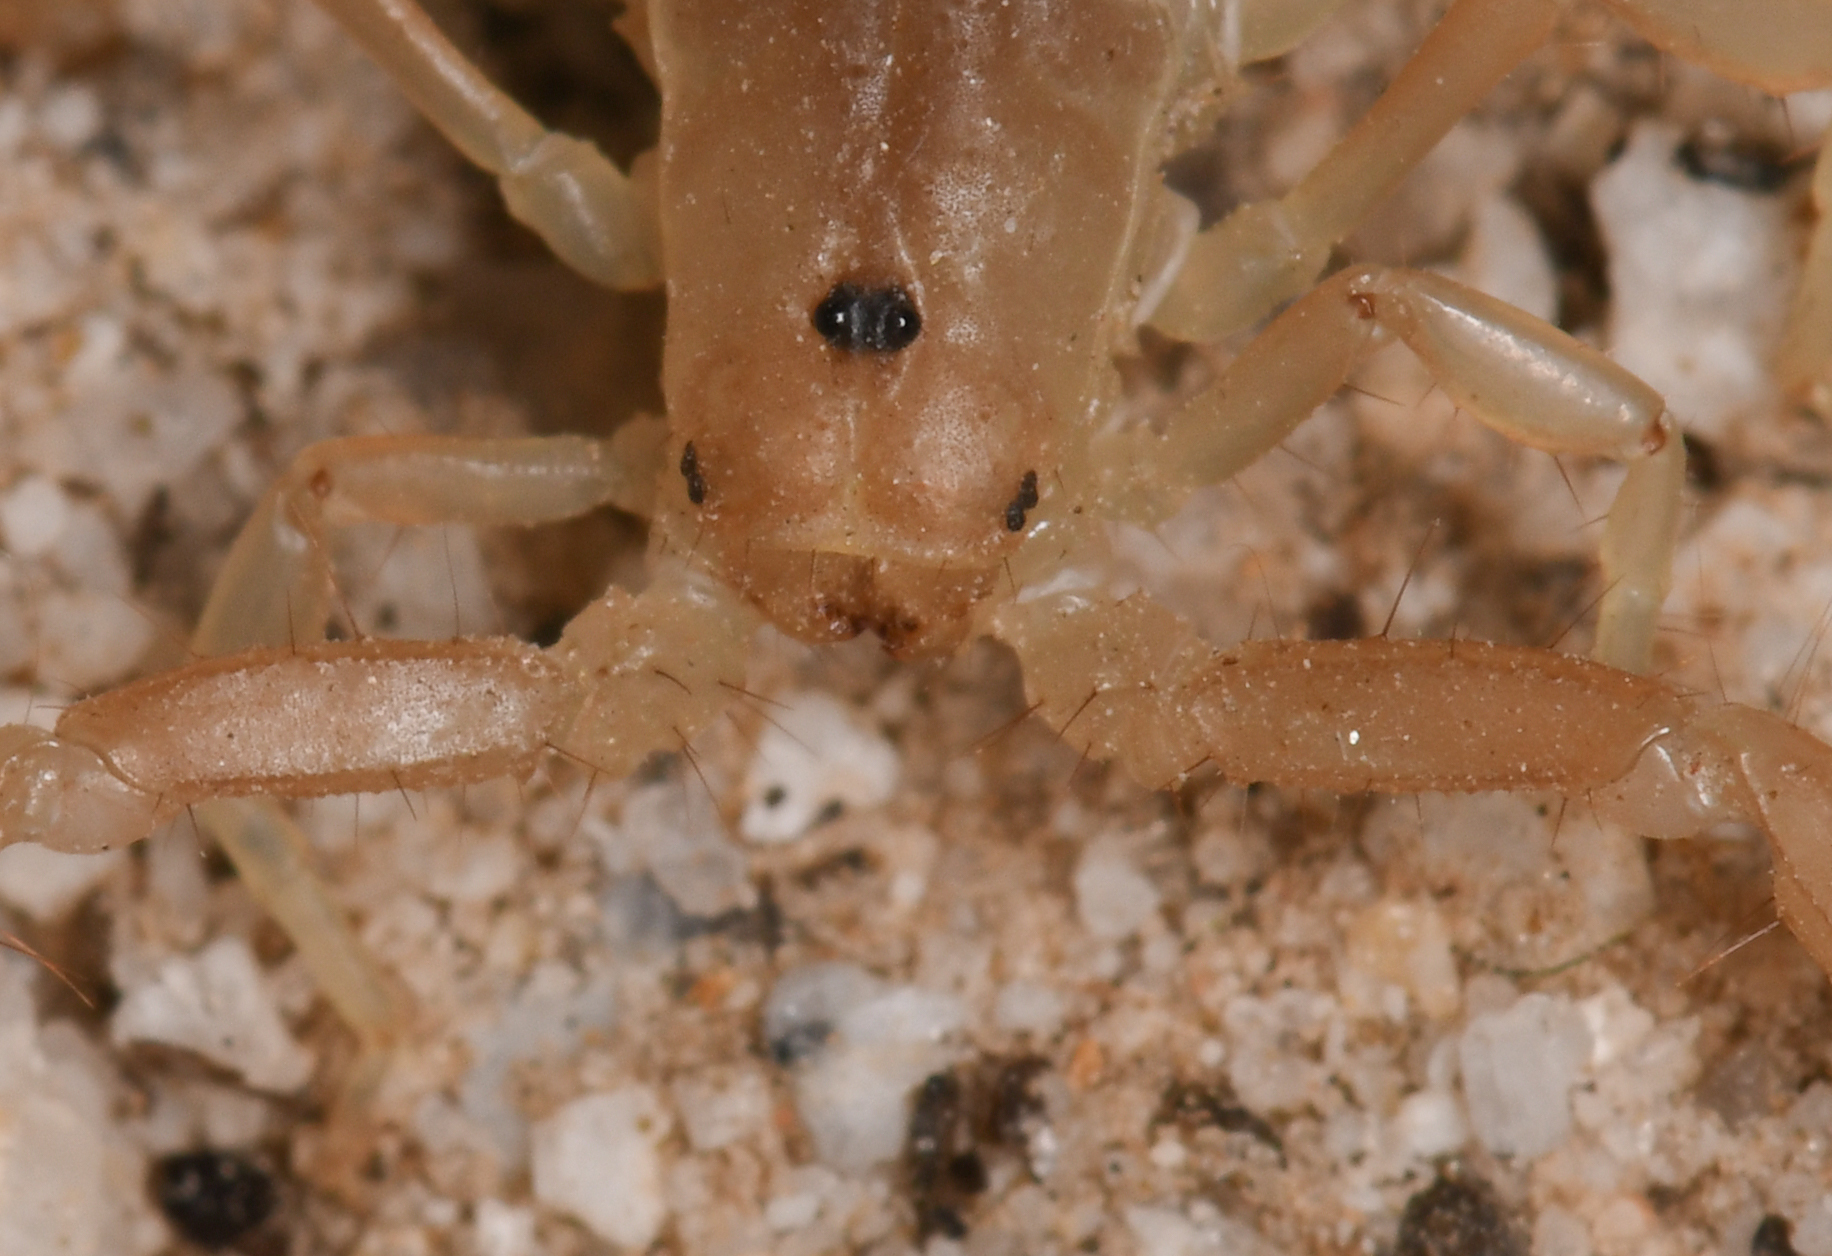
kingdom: Animalia
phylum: Arthropoda
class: Arachnida
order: Scorpiones
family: Vaejovidae
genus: Paravaejovis
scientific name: Paravaejovis waeringi
